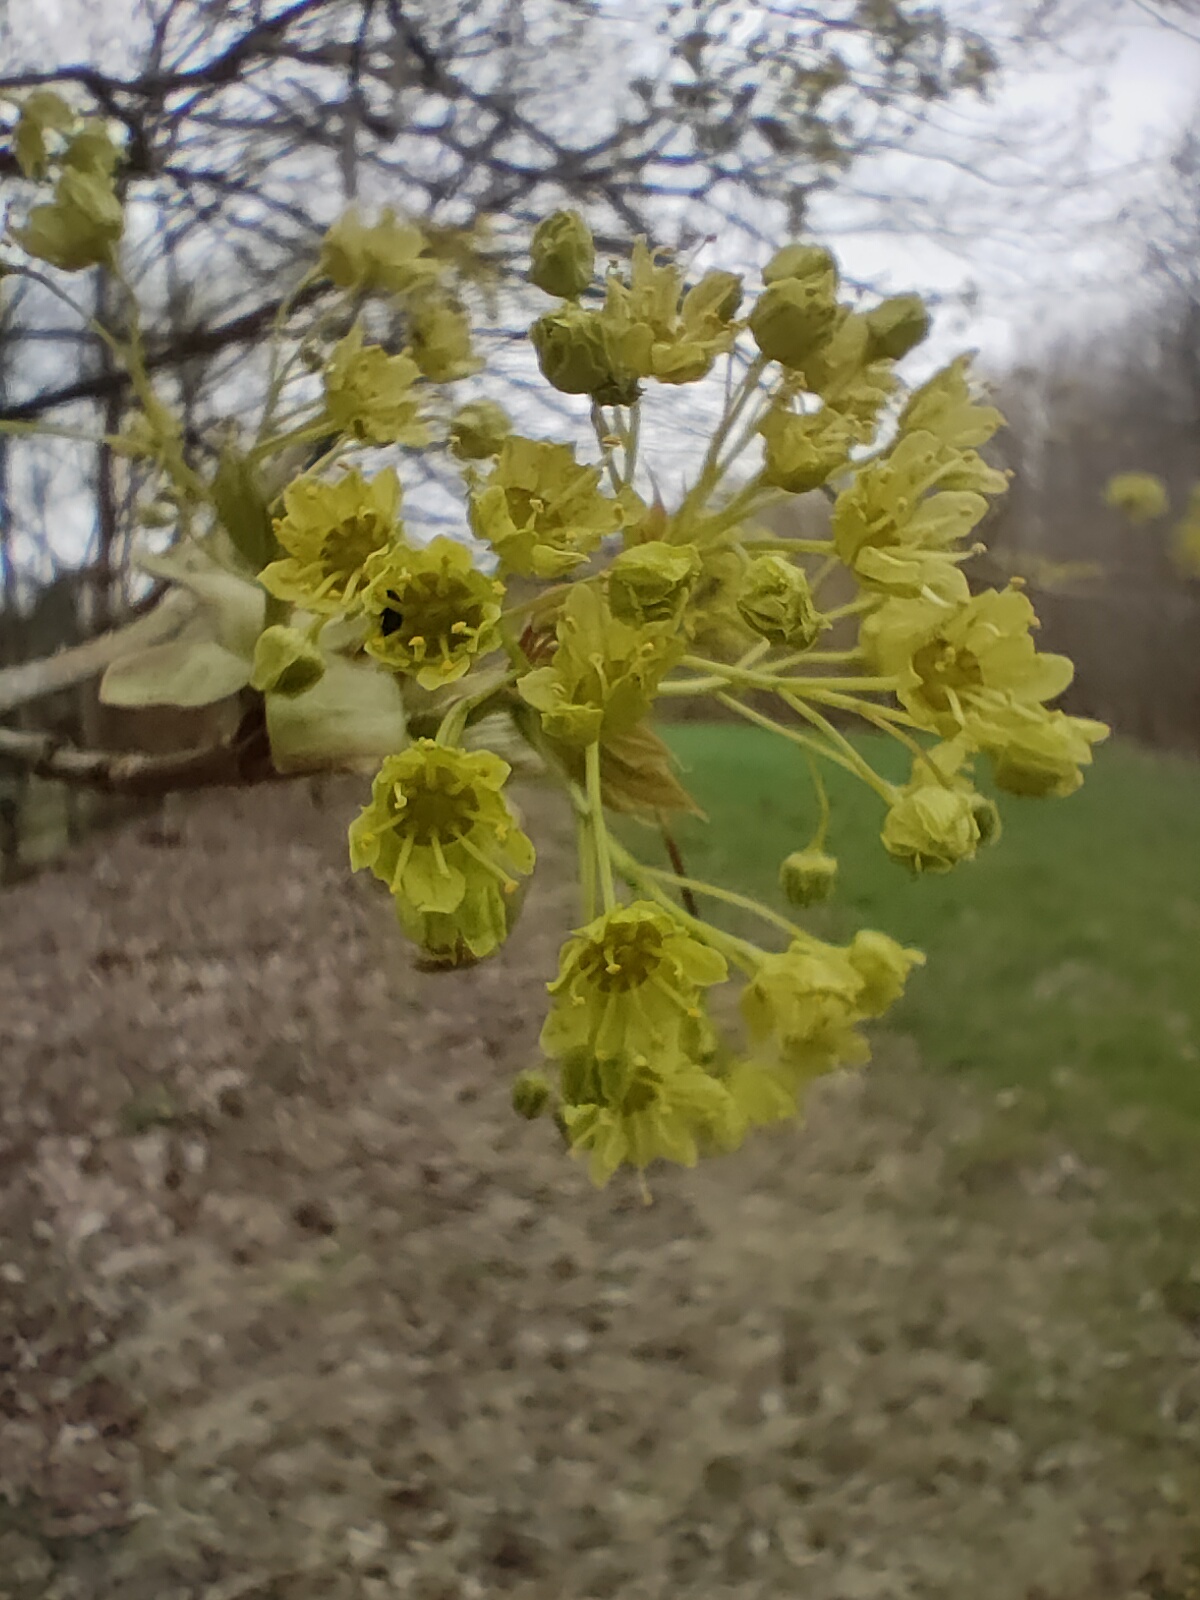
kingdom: Plantae
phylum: Tracheophyta
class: Magnoliopsida
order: Sapindales
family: Sapindaceae
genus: Acer
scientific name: Acer platanoides
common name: Norway maple
